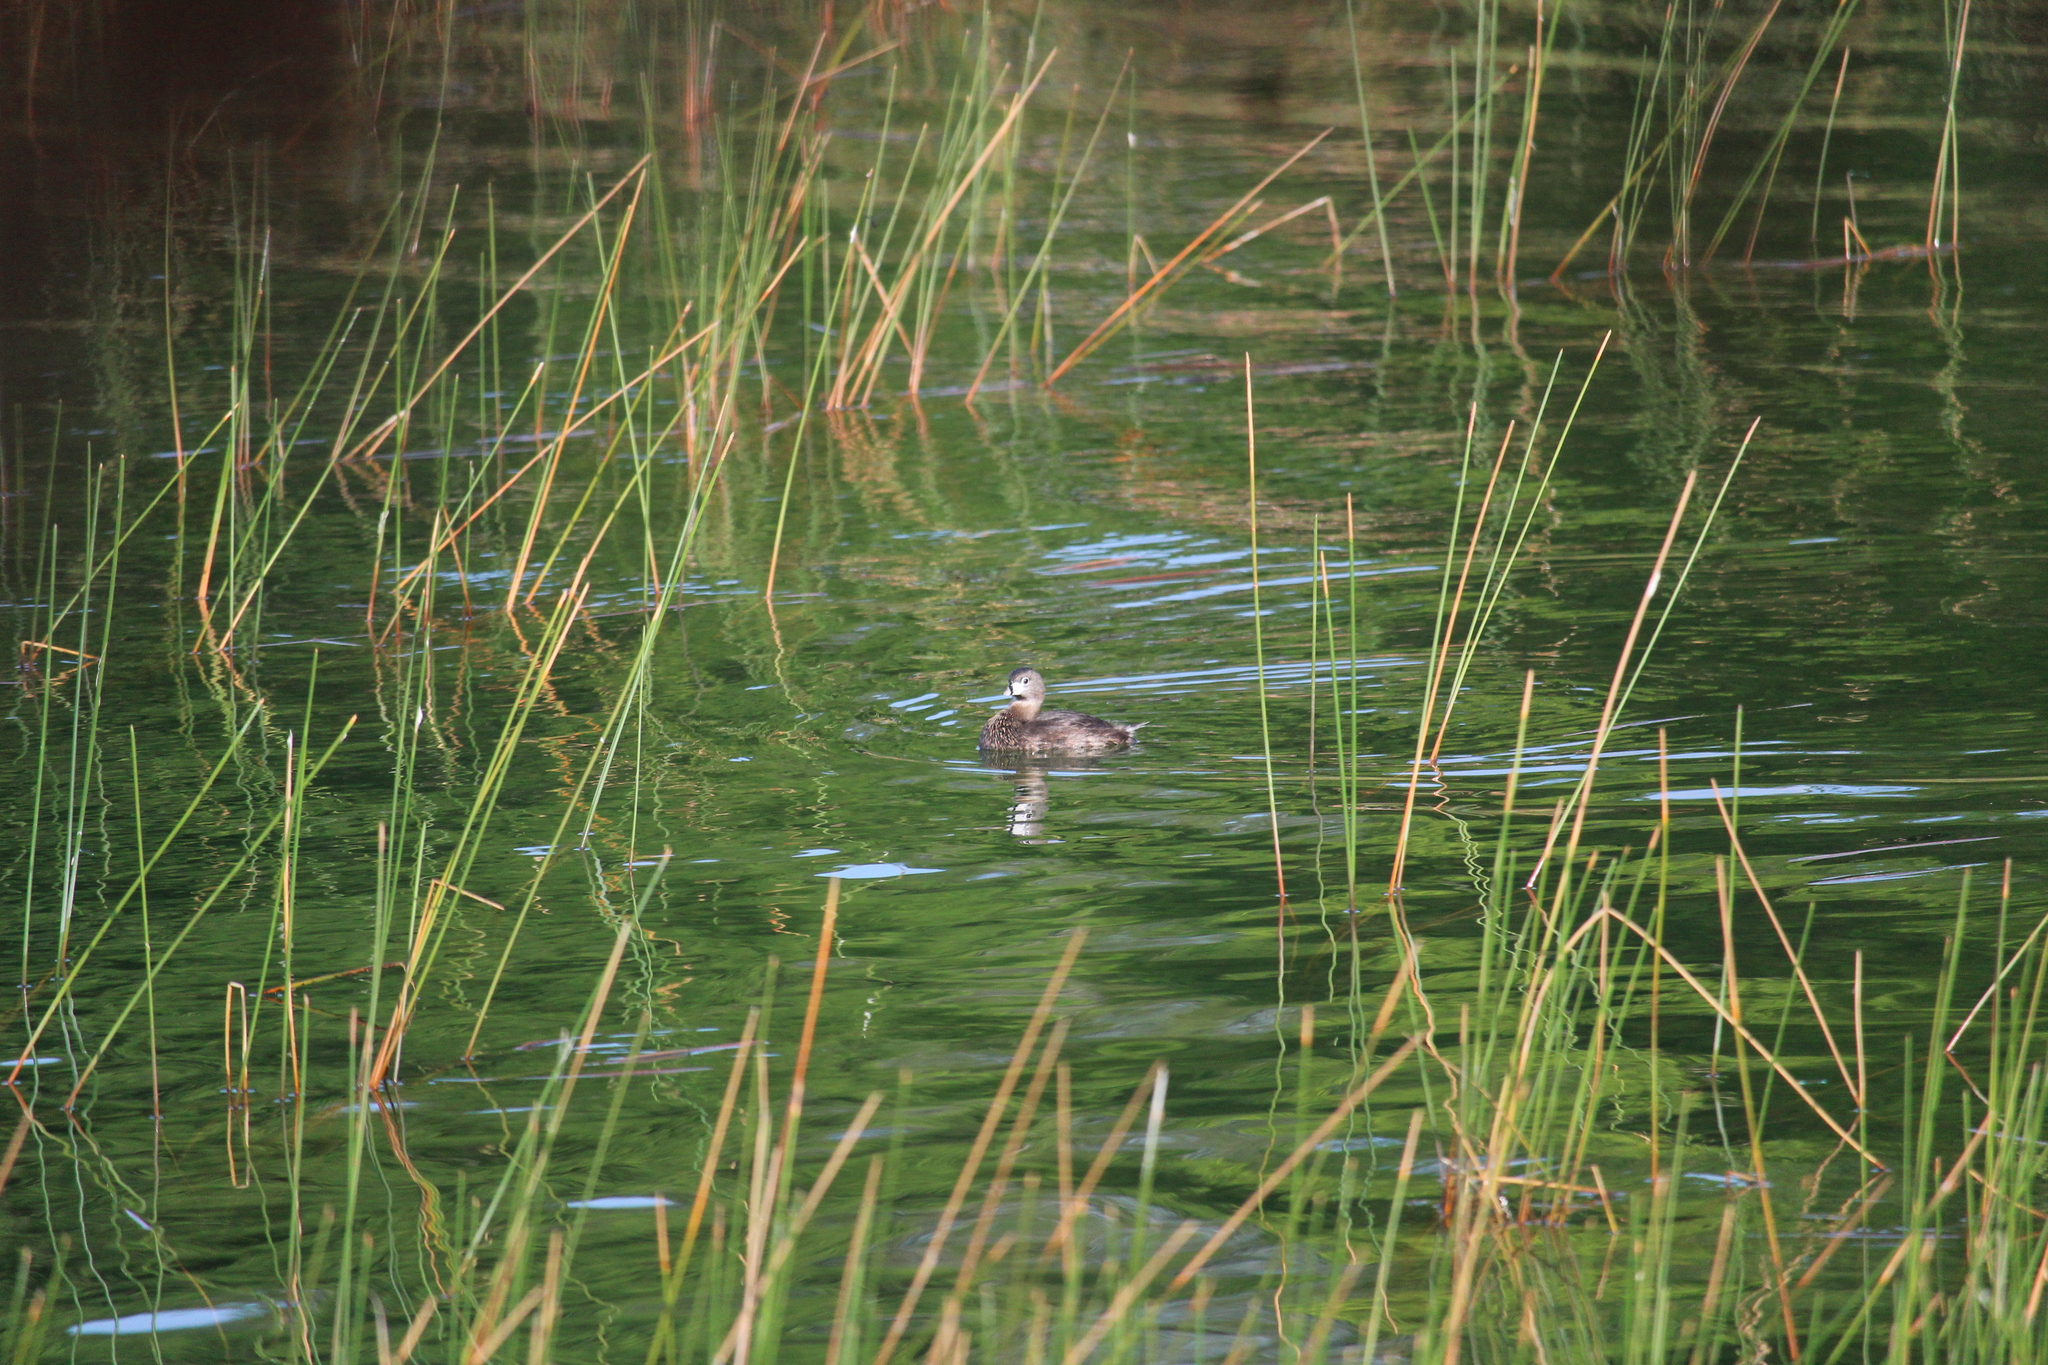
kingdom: Animalia
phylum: Chordata
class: Aves
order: Podicipediformes
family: Podicipedidae
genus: Podilymbus
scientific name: Podilymbus podiceps
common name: Pied-billed grebe
